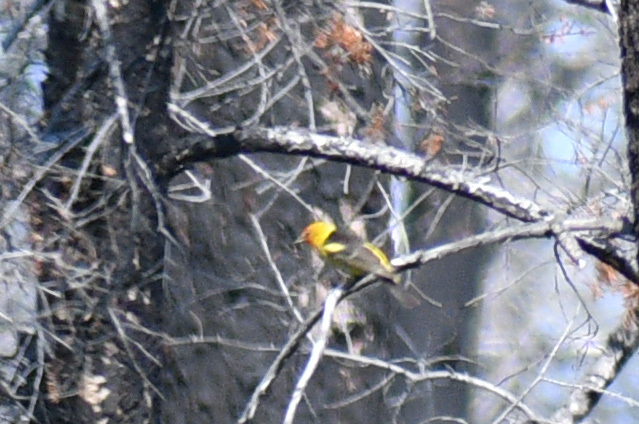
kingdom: Animalia
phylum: Chordata
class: Aves
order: Passeriformes
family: Cardinalidae
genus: Piranga
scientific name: Piranga ludoviciana
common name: Western tanager
